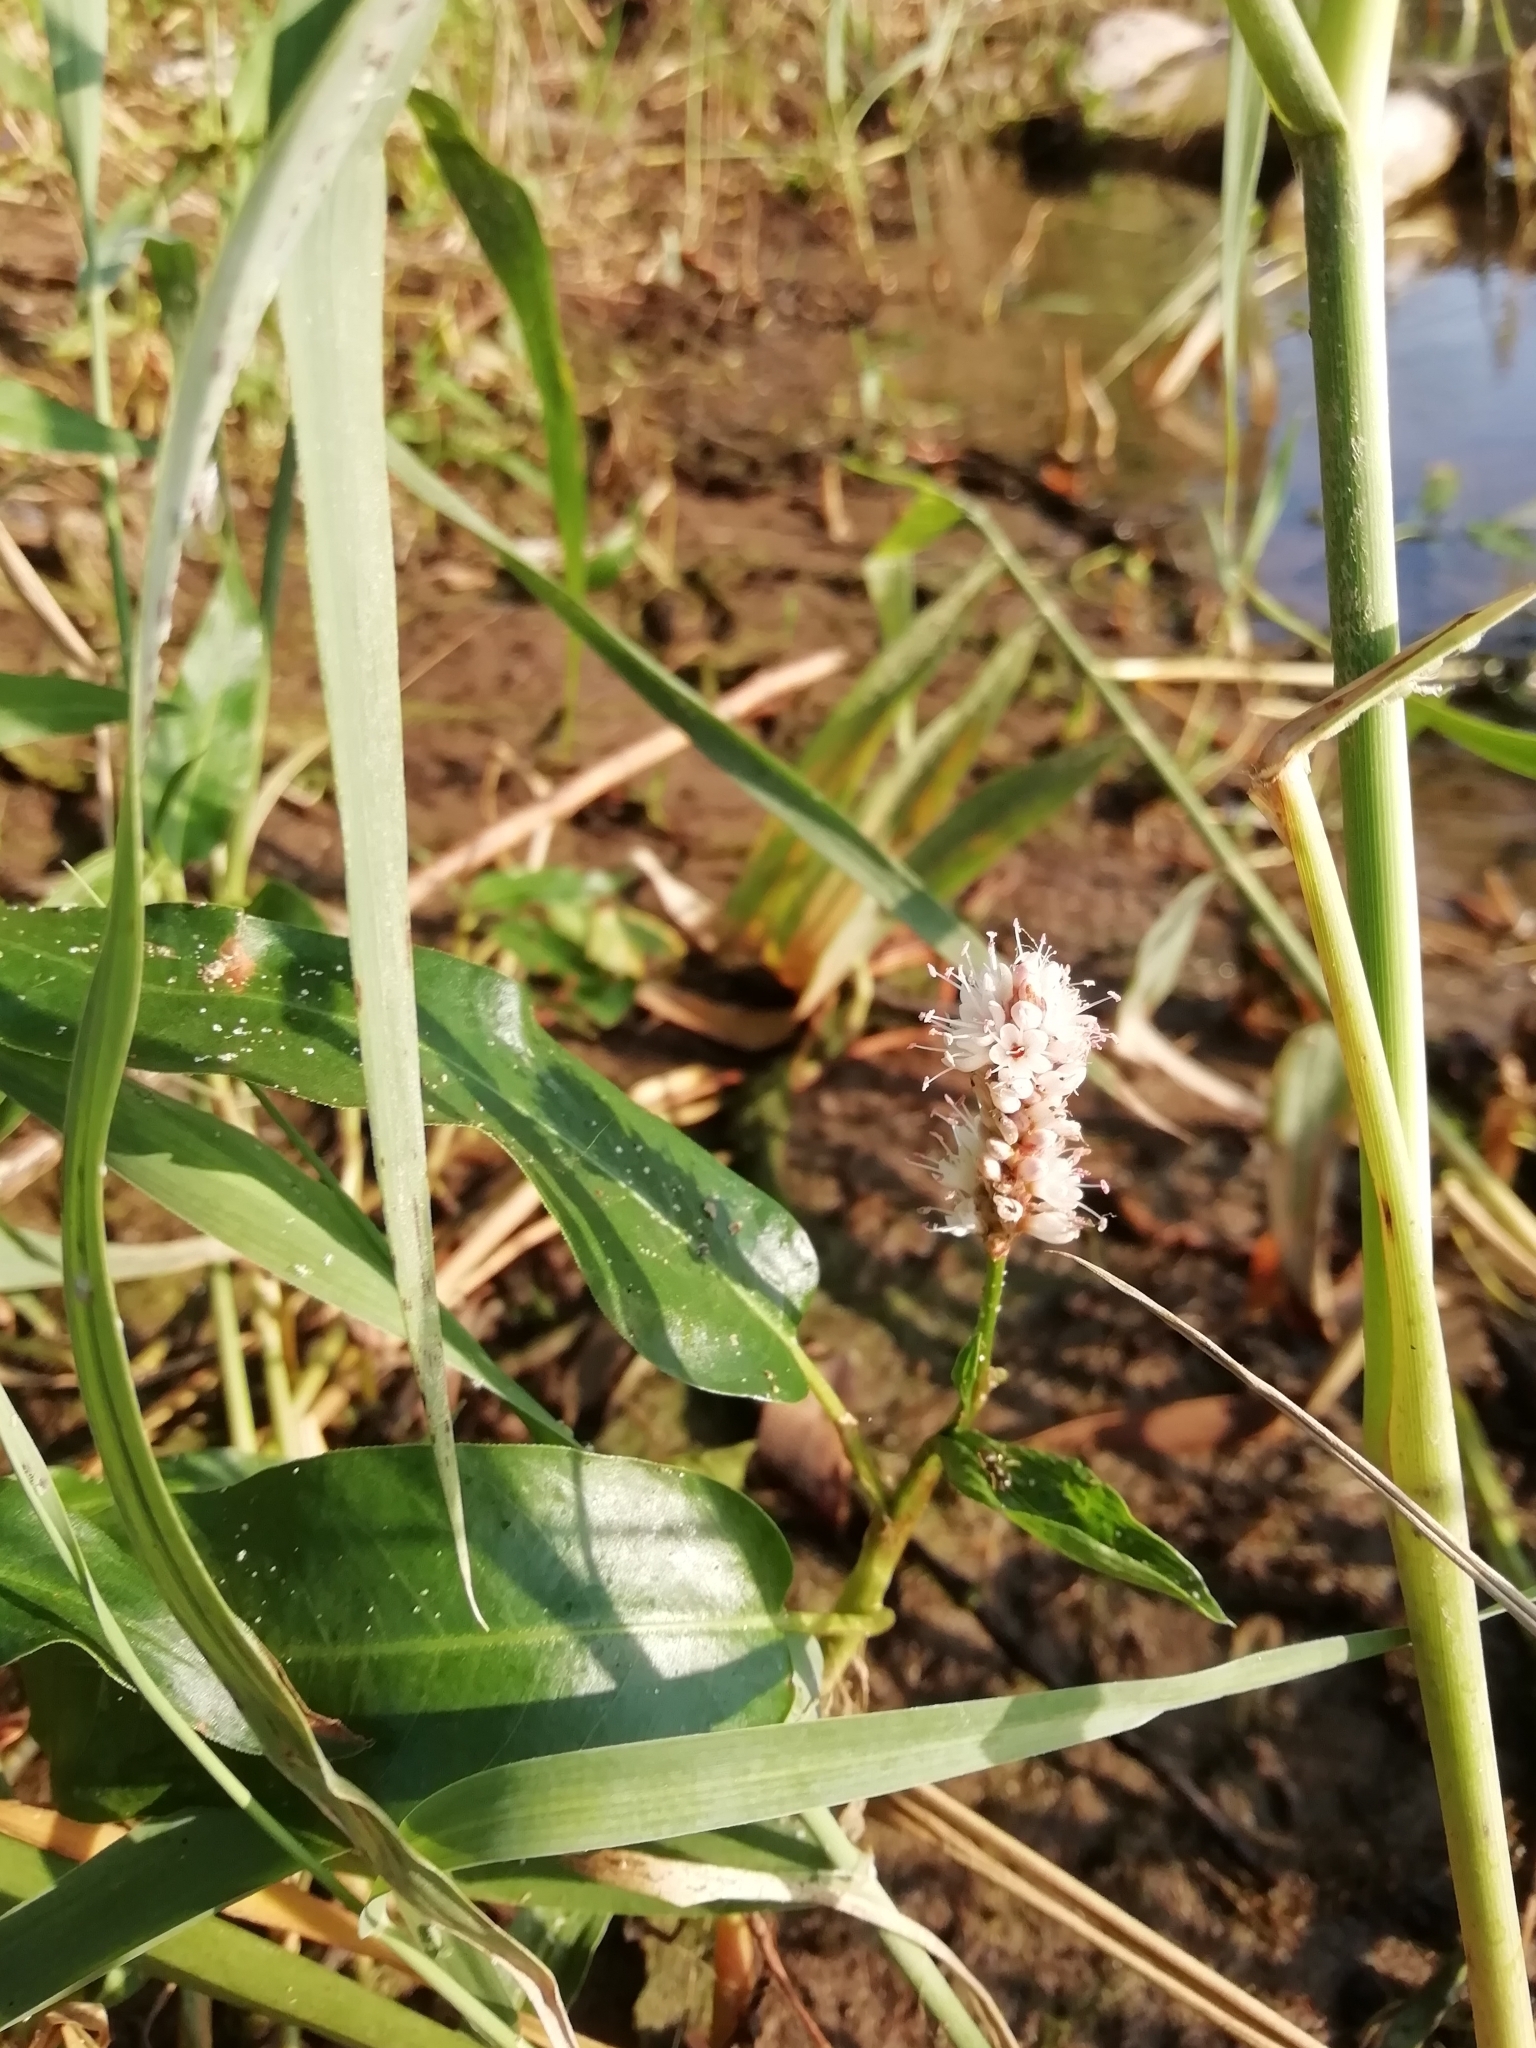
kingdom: Plantae
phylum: Tracheophyta
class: Magnoliopsida
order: Caryophyllales
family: Polygonaceae
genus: Persicaria
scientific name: Persicaria amphibia
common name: Amphibious bistort
